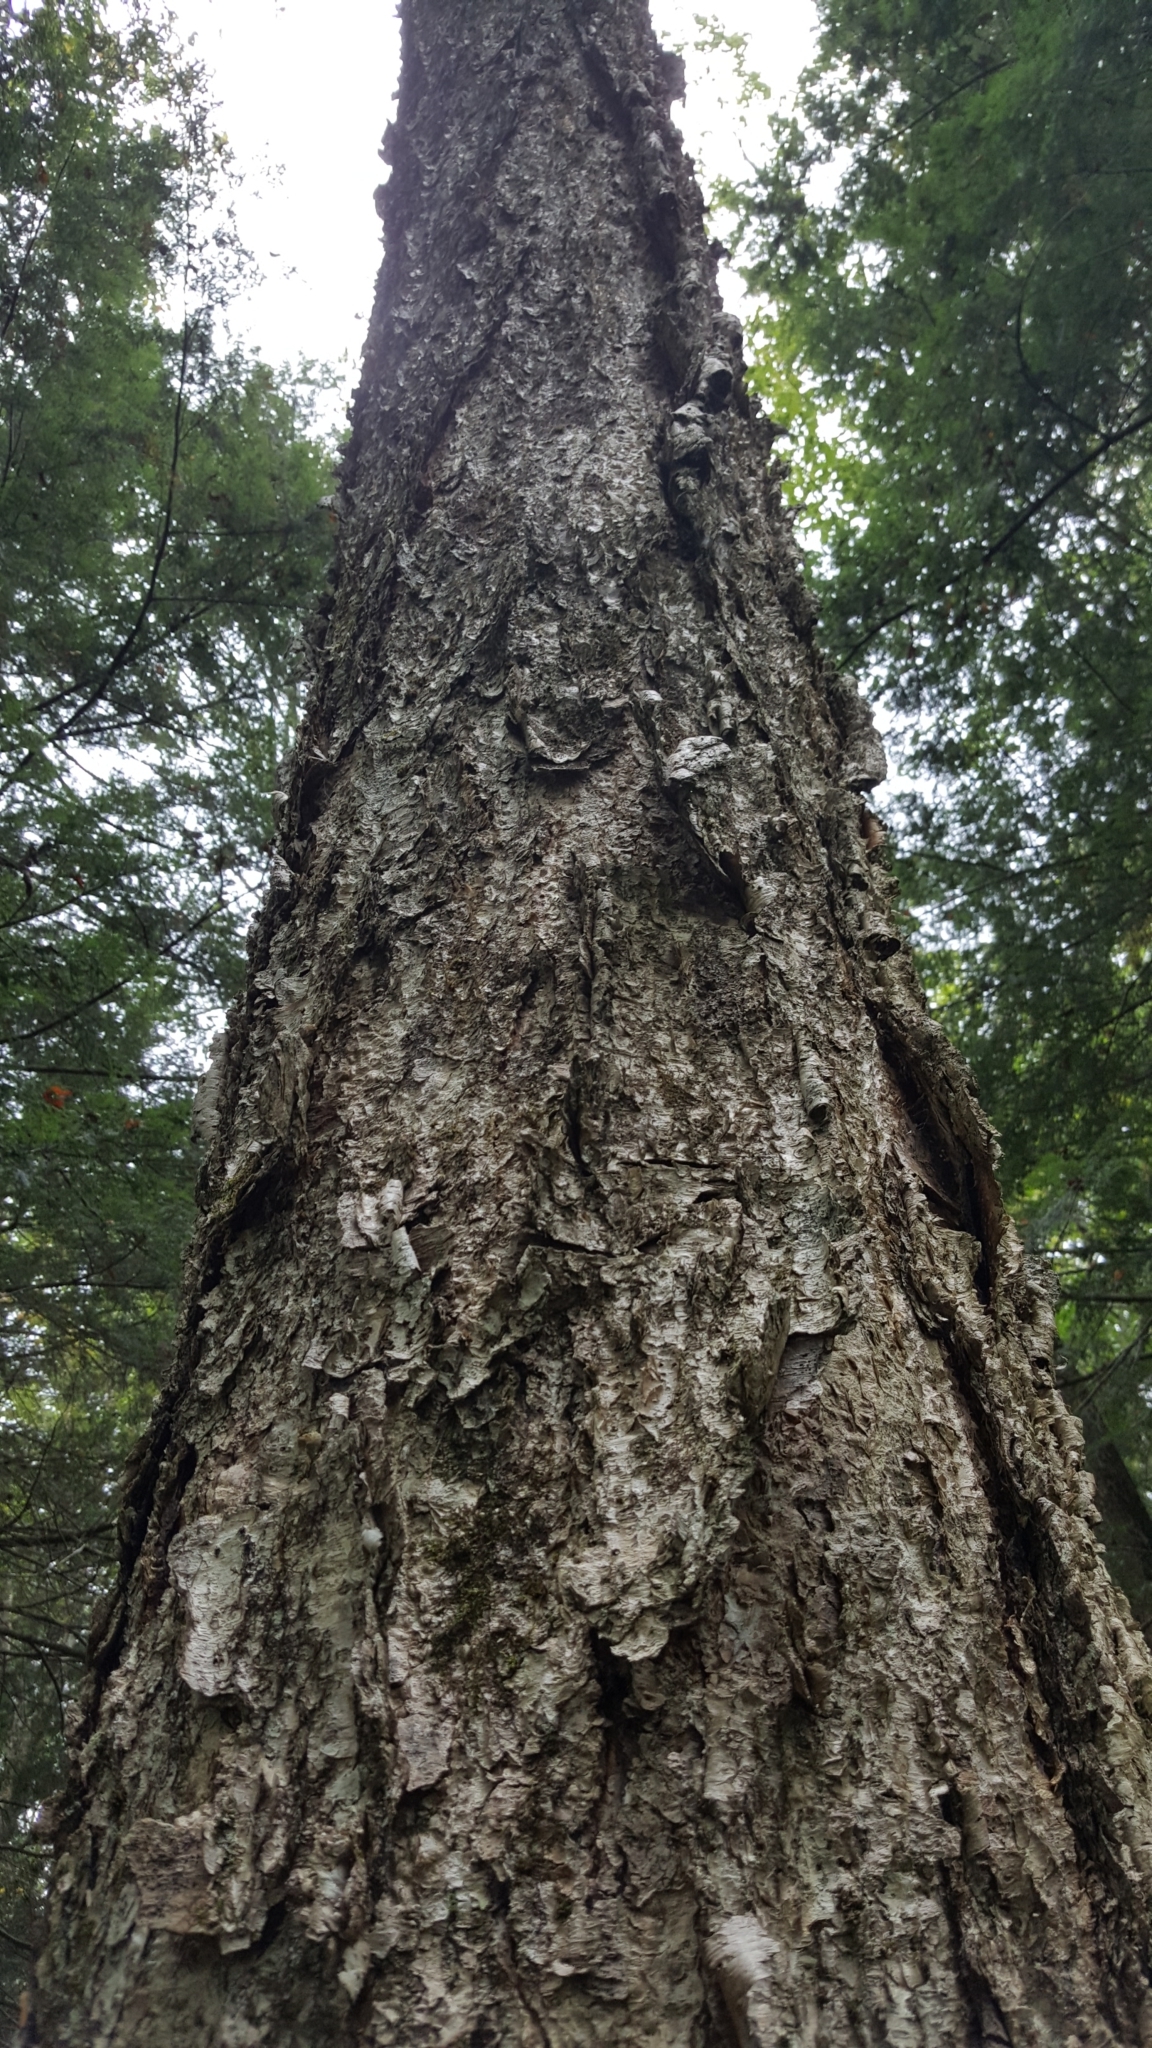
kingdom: Plantae
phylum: Tracheophyta
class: Magnoliopsida
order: Fagales
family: Betulaceae
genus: Betula
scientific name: Betula alleghaniensis
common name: Yellow birch
